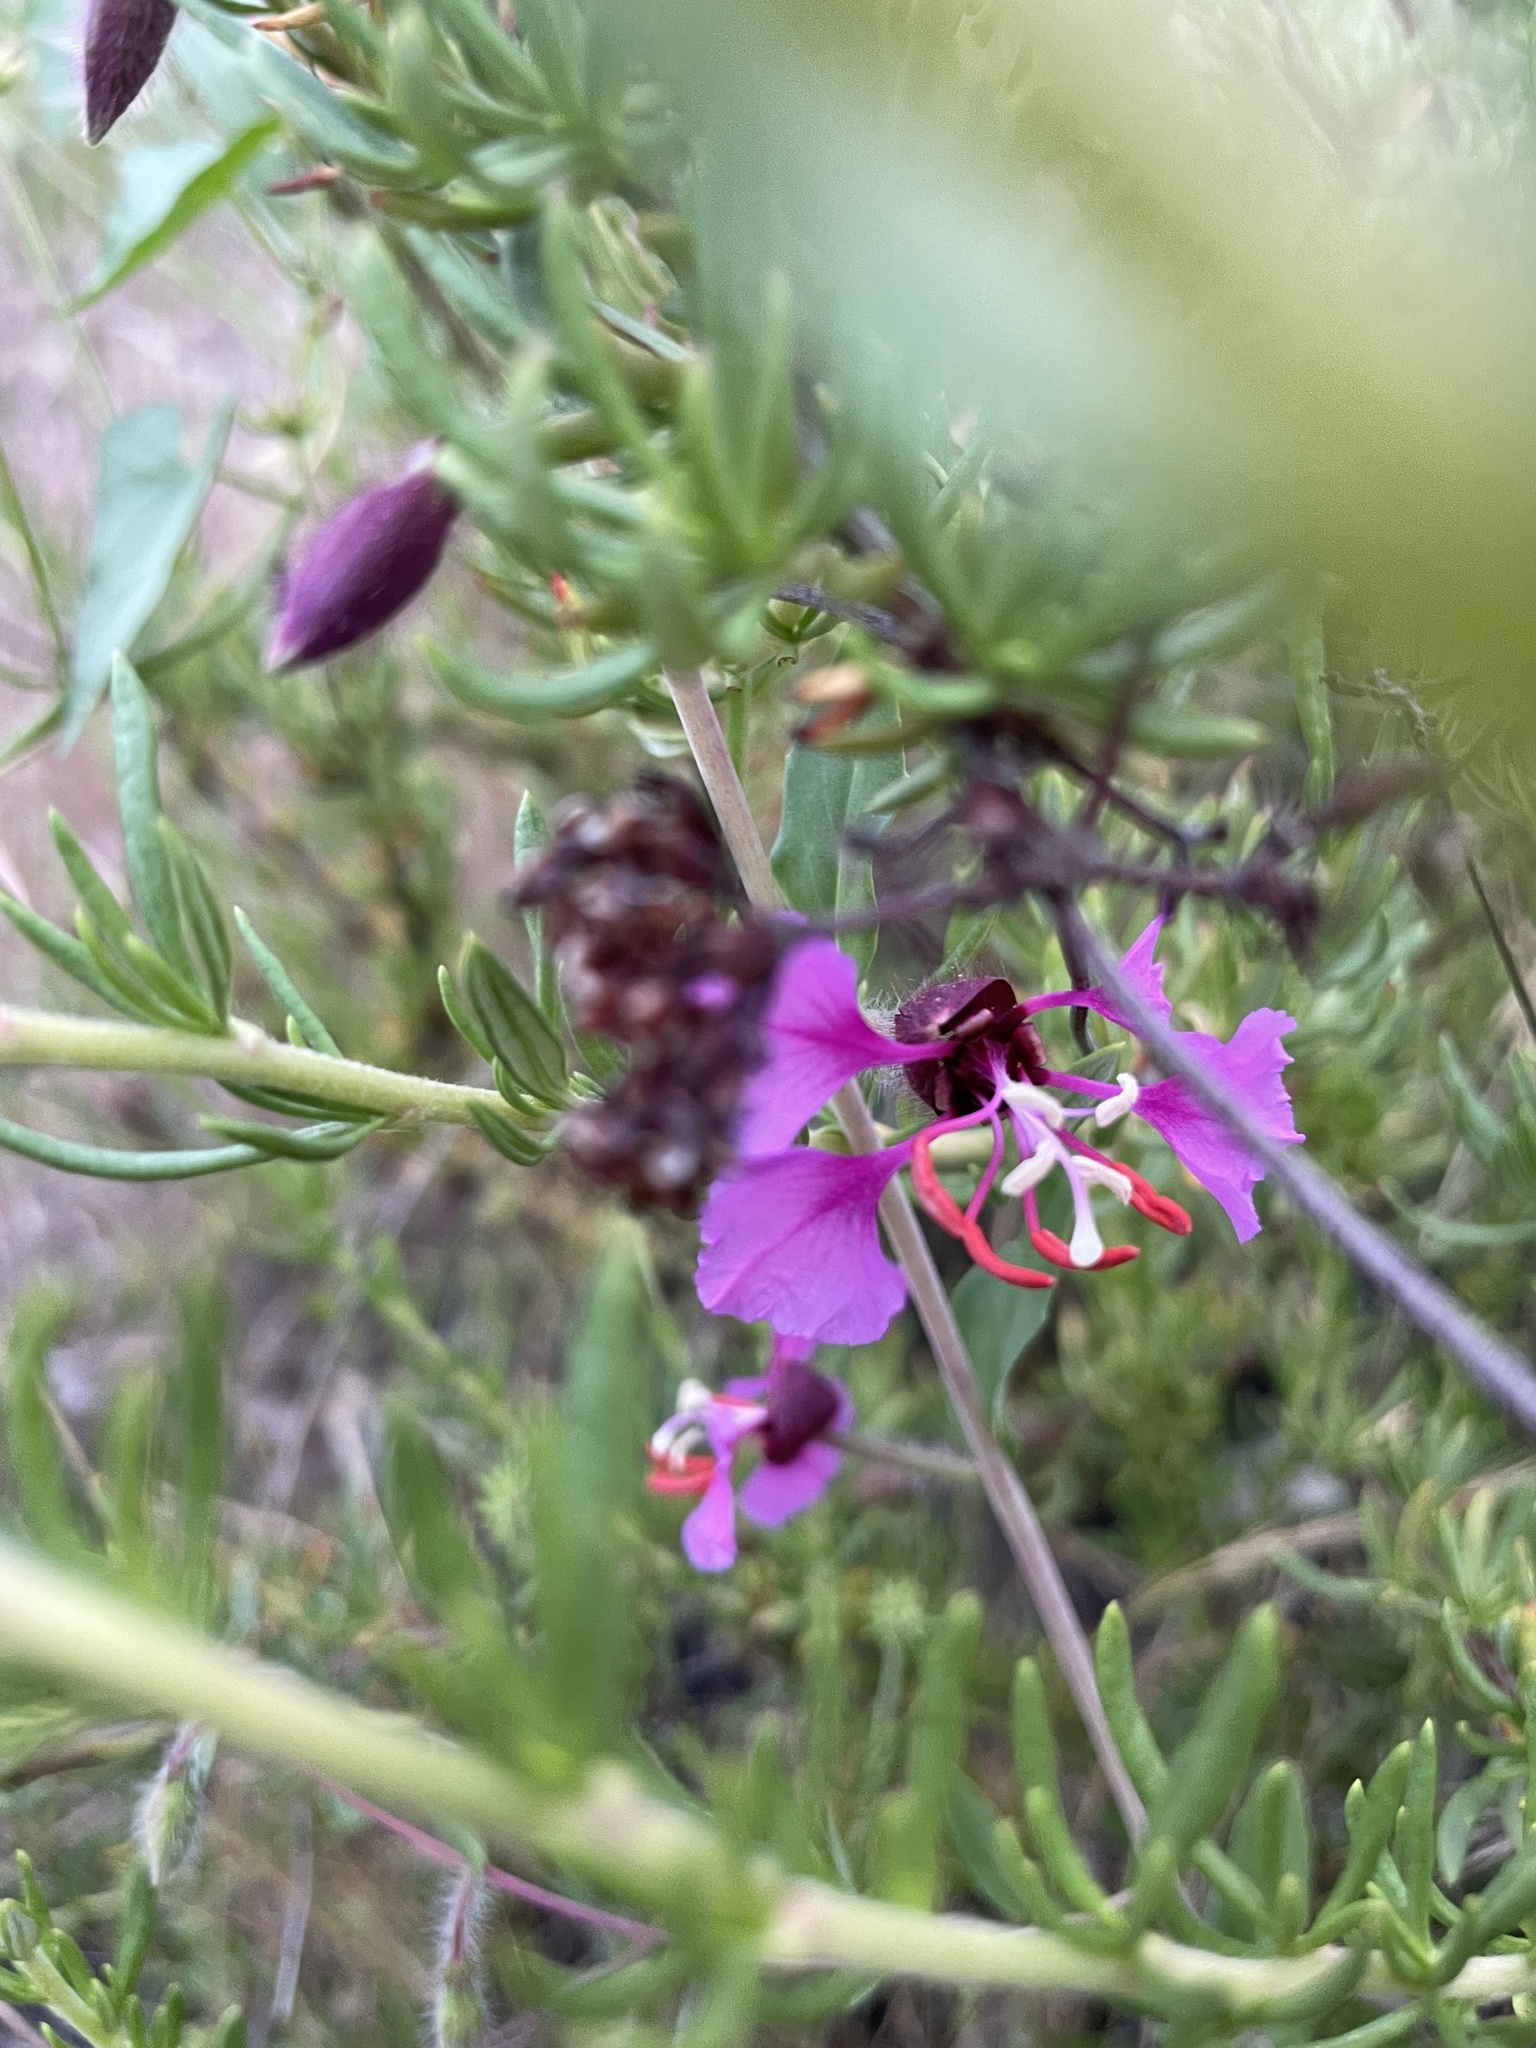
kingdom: Plantae
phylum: Tracheophyta
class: Magnoliopsida
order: Myrtales
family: Onagraceae
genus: Clarkia
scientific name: Clarkia unguiculata
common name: Clarkia
